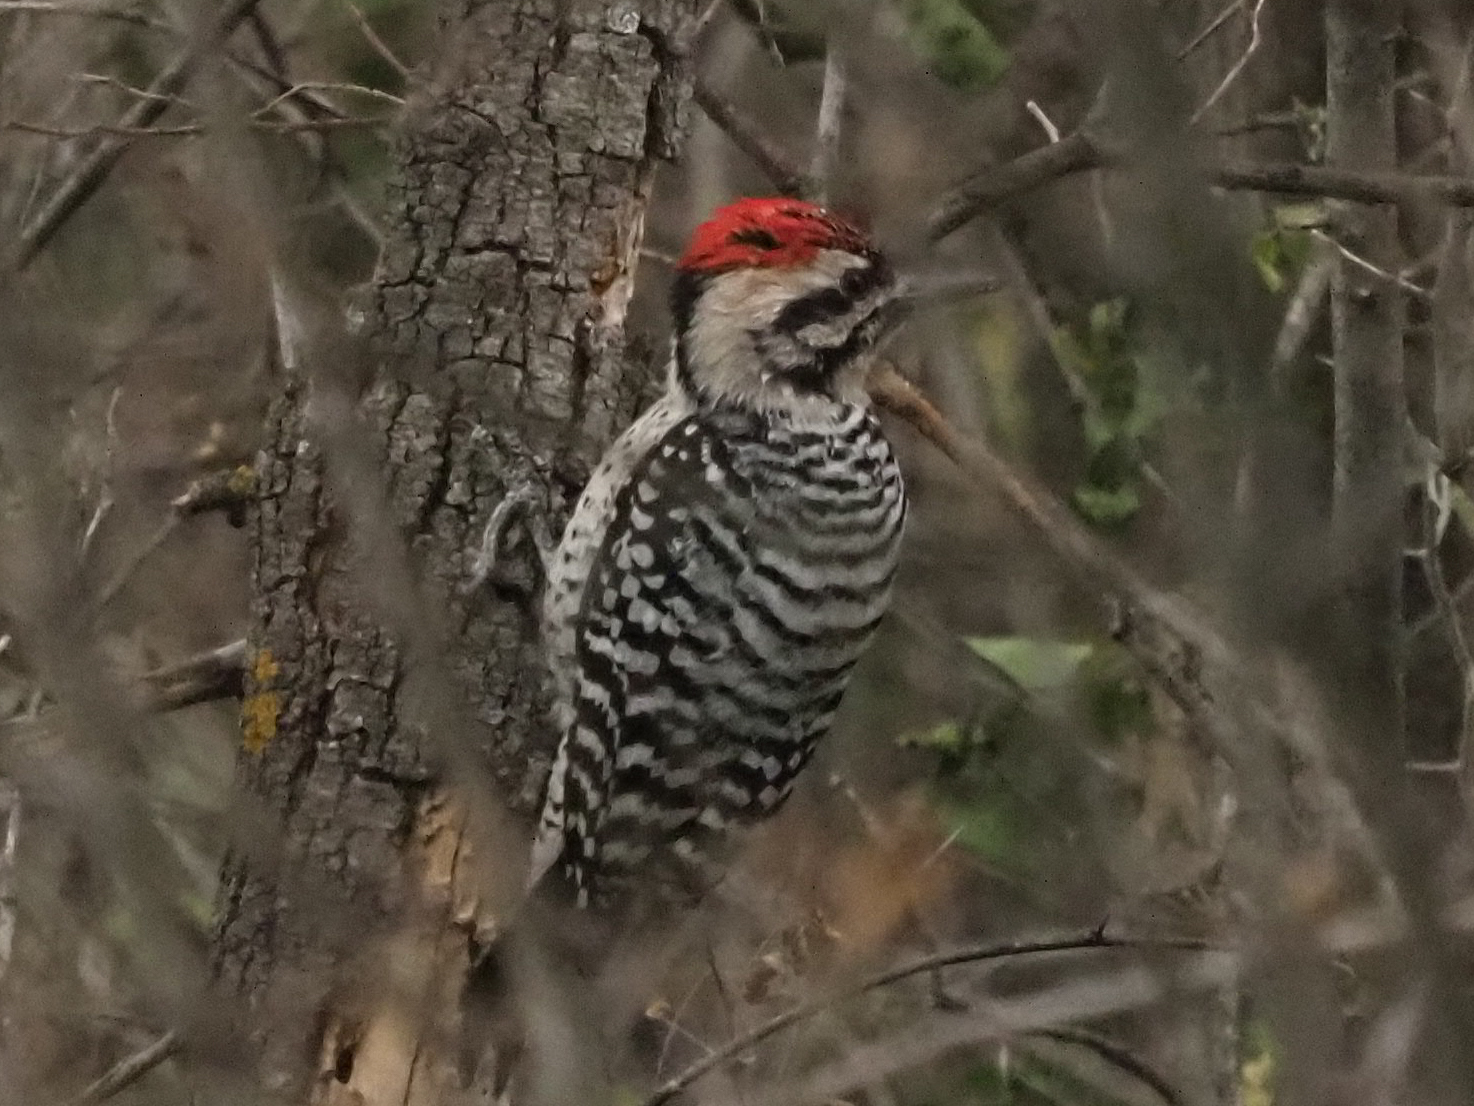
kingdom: Animalia
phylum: Chordata
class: Aves
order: Piciformes
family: Picidae
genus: Dryobates
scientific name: Dryobates scalaris
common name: Ladder-backed woodpecker
